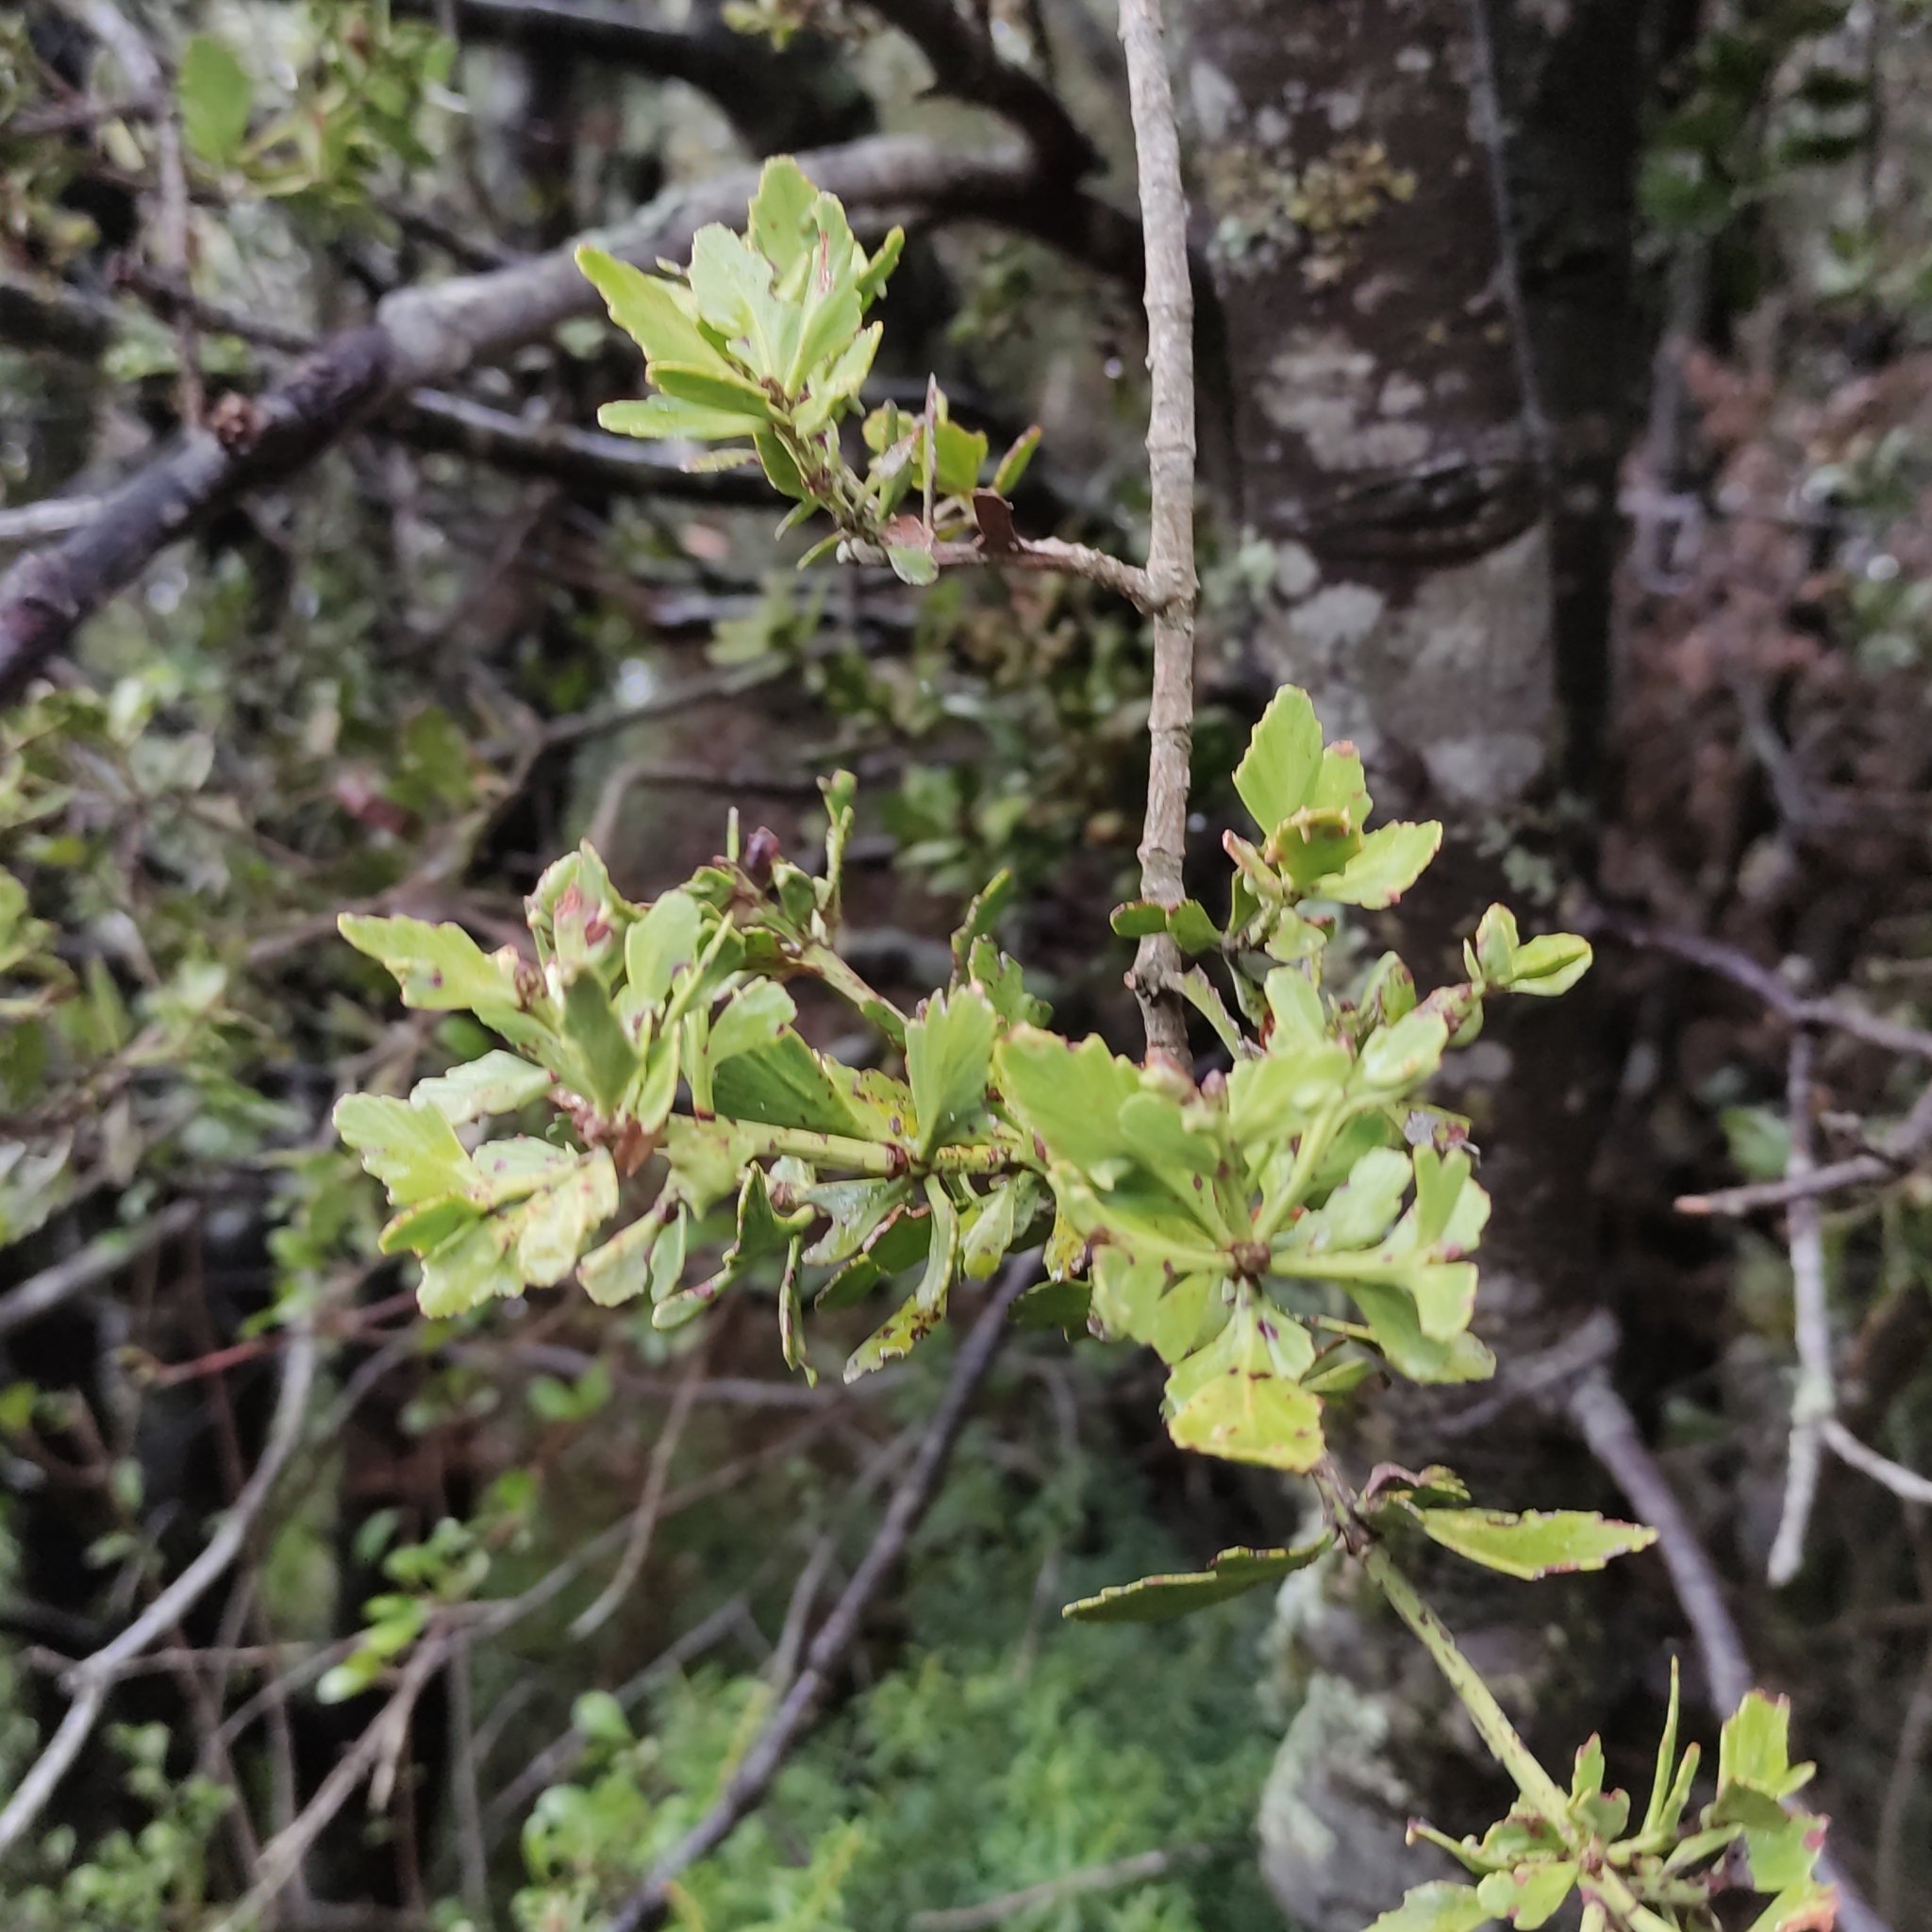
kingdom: Plantae
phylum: Tracheophyta
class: Pinopsida
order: Pinales
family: Phyllocladaceae
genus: Phyllocladus
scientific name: Phyllocladus trichomanoides
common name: Celery pine
